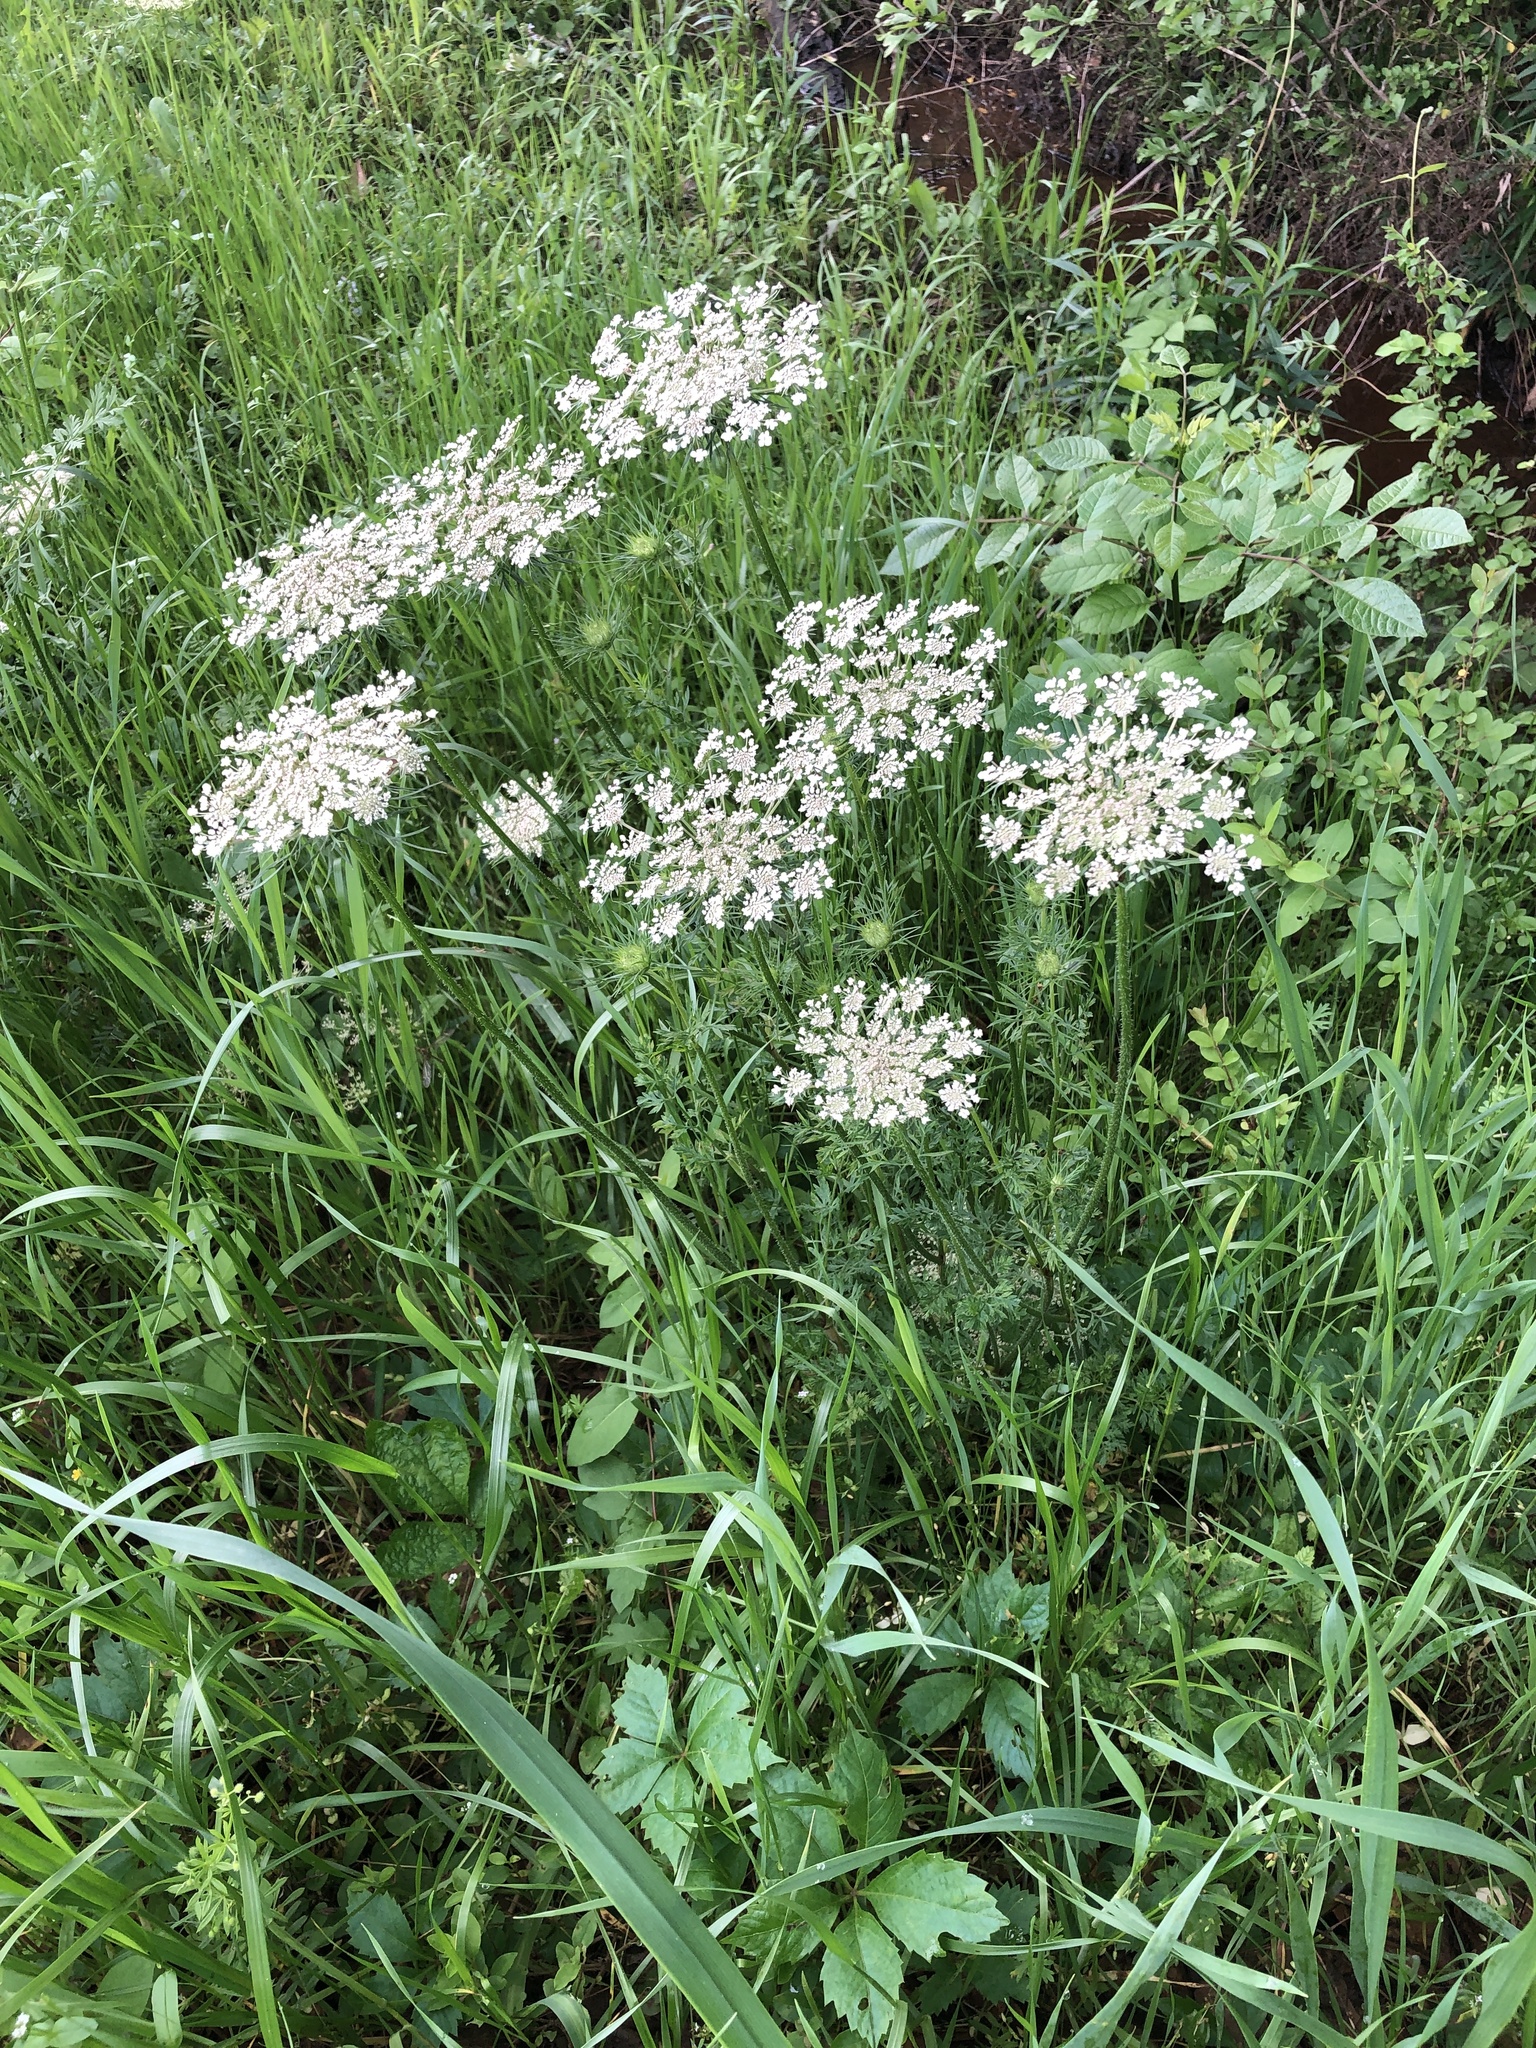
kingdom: Plantae
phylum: Tracheophyta
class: Magnoliopsida
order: Apiales
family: Apiaceae
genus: Daucus
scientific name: Daucus carota
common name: Wild carrot
